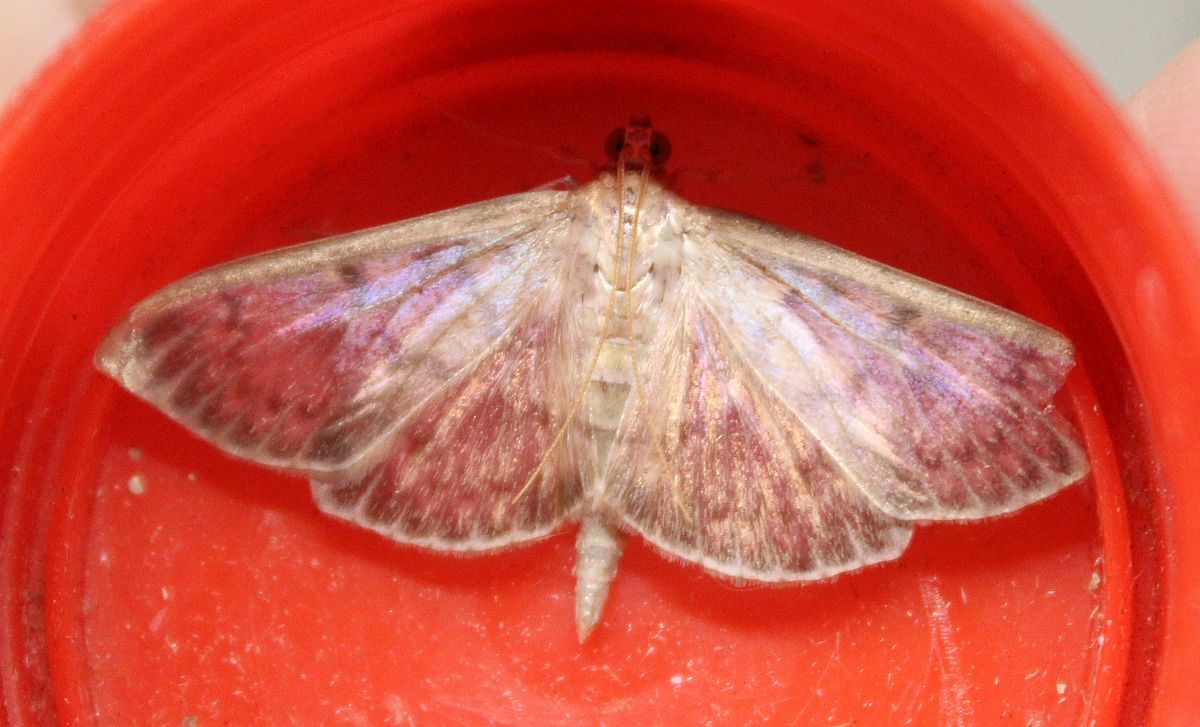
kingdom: Animalia
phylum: Arthropoda
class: Insecta
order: Lepidoptera
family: Crambidae
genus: Patania
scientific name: Patania ruralis
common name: Mother of pearl
